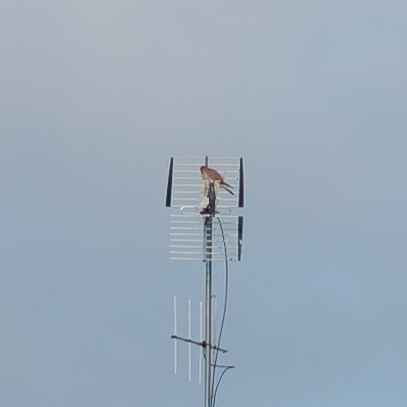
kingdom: Animalia
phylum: Chordata
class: Aves
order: Falconiformes
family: Falconidae
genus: Falco
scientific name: Falco tinnunculus
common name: Common kestrel
